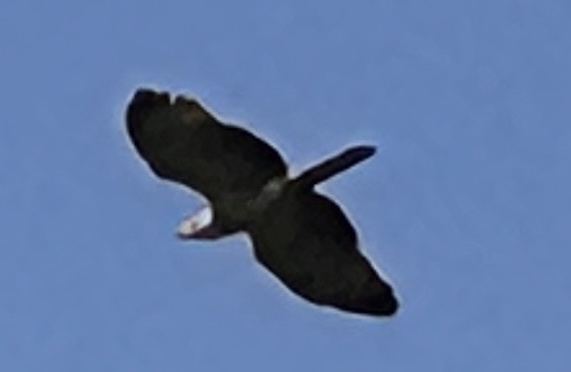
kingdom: Animalia
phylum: Chordata
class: Aves
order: Accipitriformes
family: Accipitridae
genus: Pernis
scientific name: Pernis ptilorhynchus
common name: Crested honey buzzard
